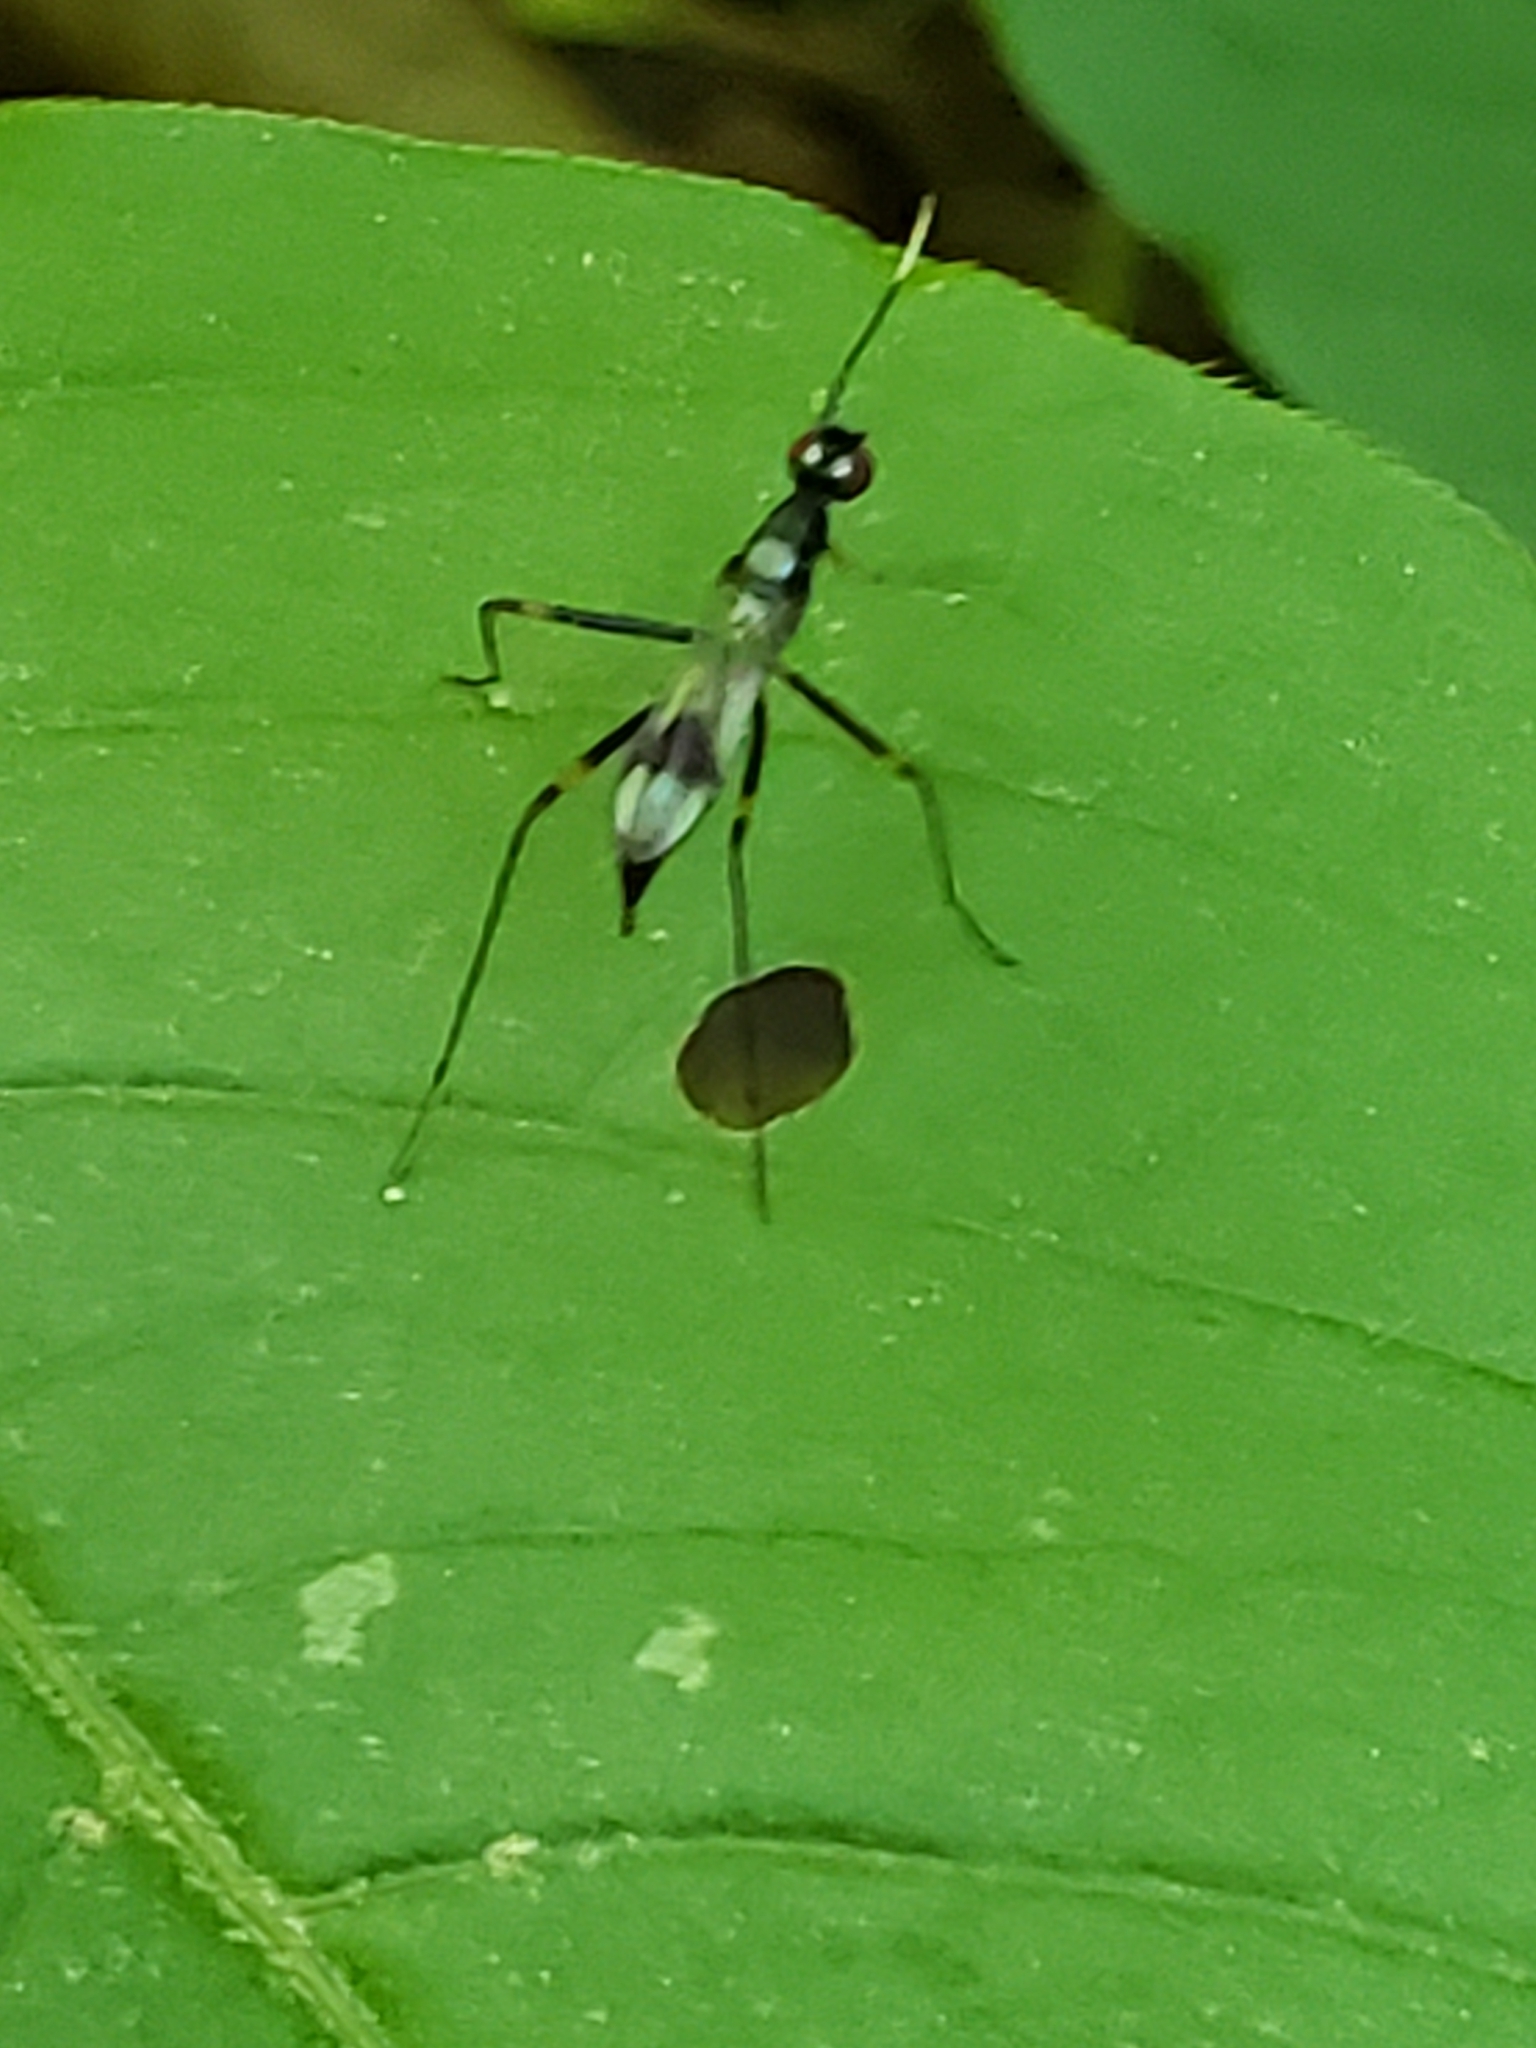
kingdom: Animalia
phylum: Arthropoda
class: Insecta
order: Diptera
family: Micropezidae
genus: Rainieria
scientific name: Rainieria antennaepes
